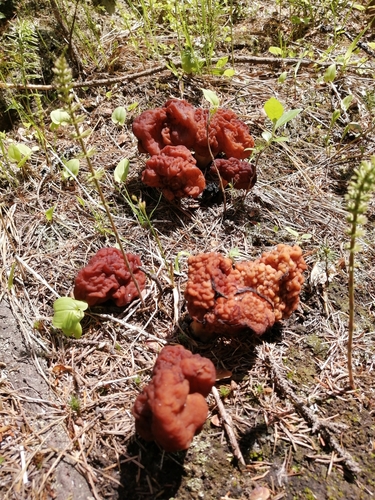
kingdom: Fungi
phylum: Ascomycota
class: Pezizomycetes
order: Pezizales
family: Discinaceae
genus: Gyromitra
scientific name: Gyromitra
